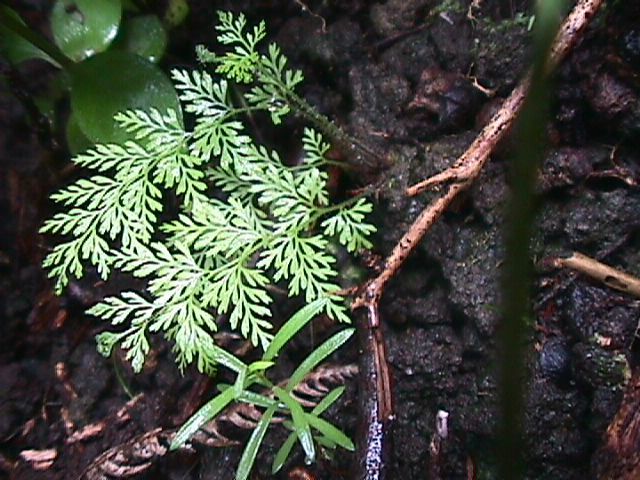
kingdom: Plantae
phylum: Tracheophyta
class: Polypodiopsida
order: Polypodiales
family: Dennstaedtiaceae
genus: Paesia
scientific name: Paesia scaberula
